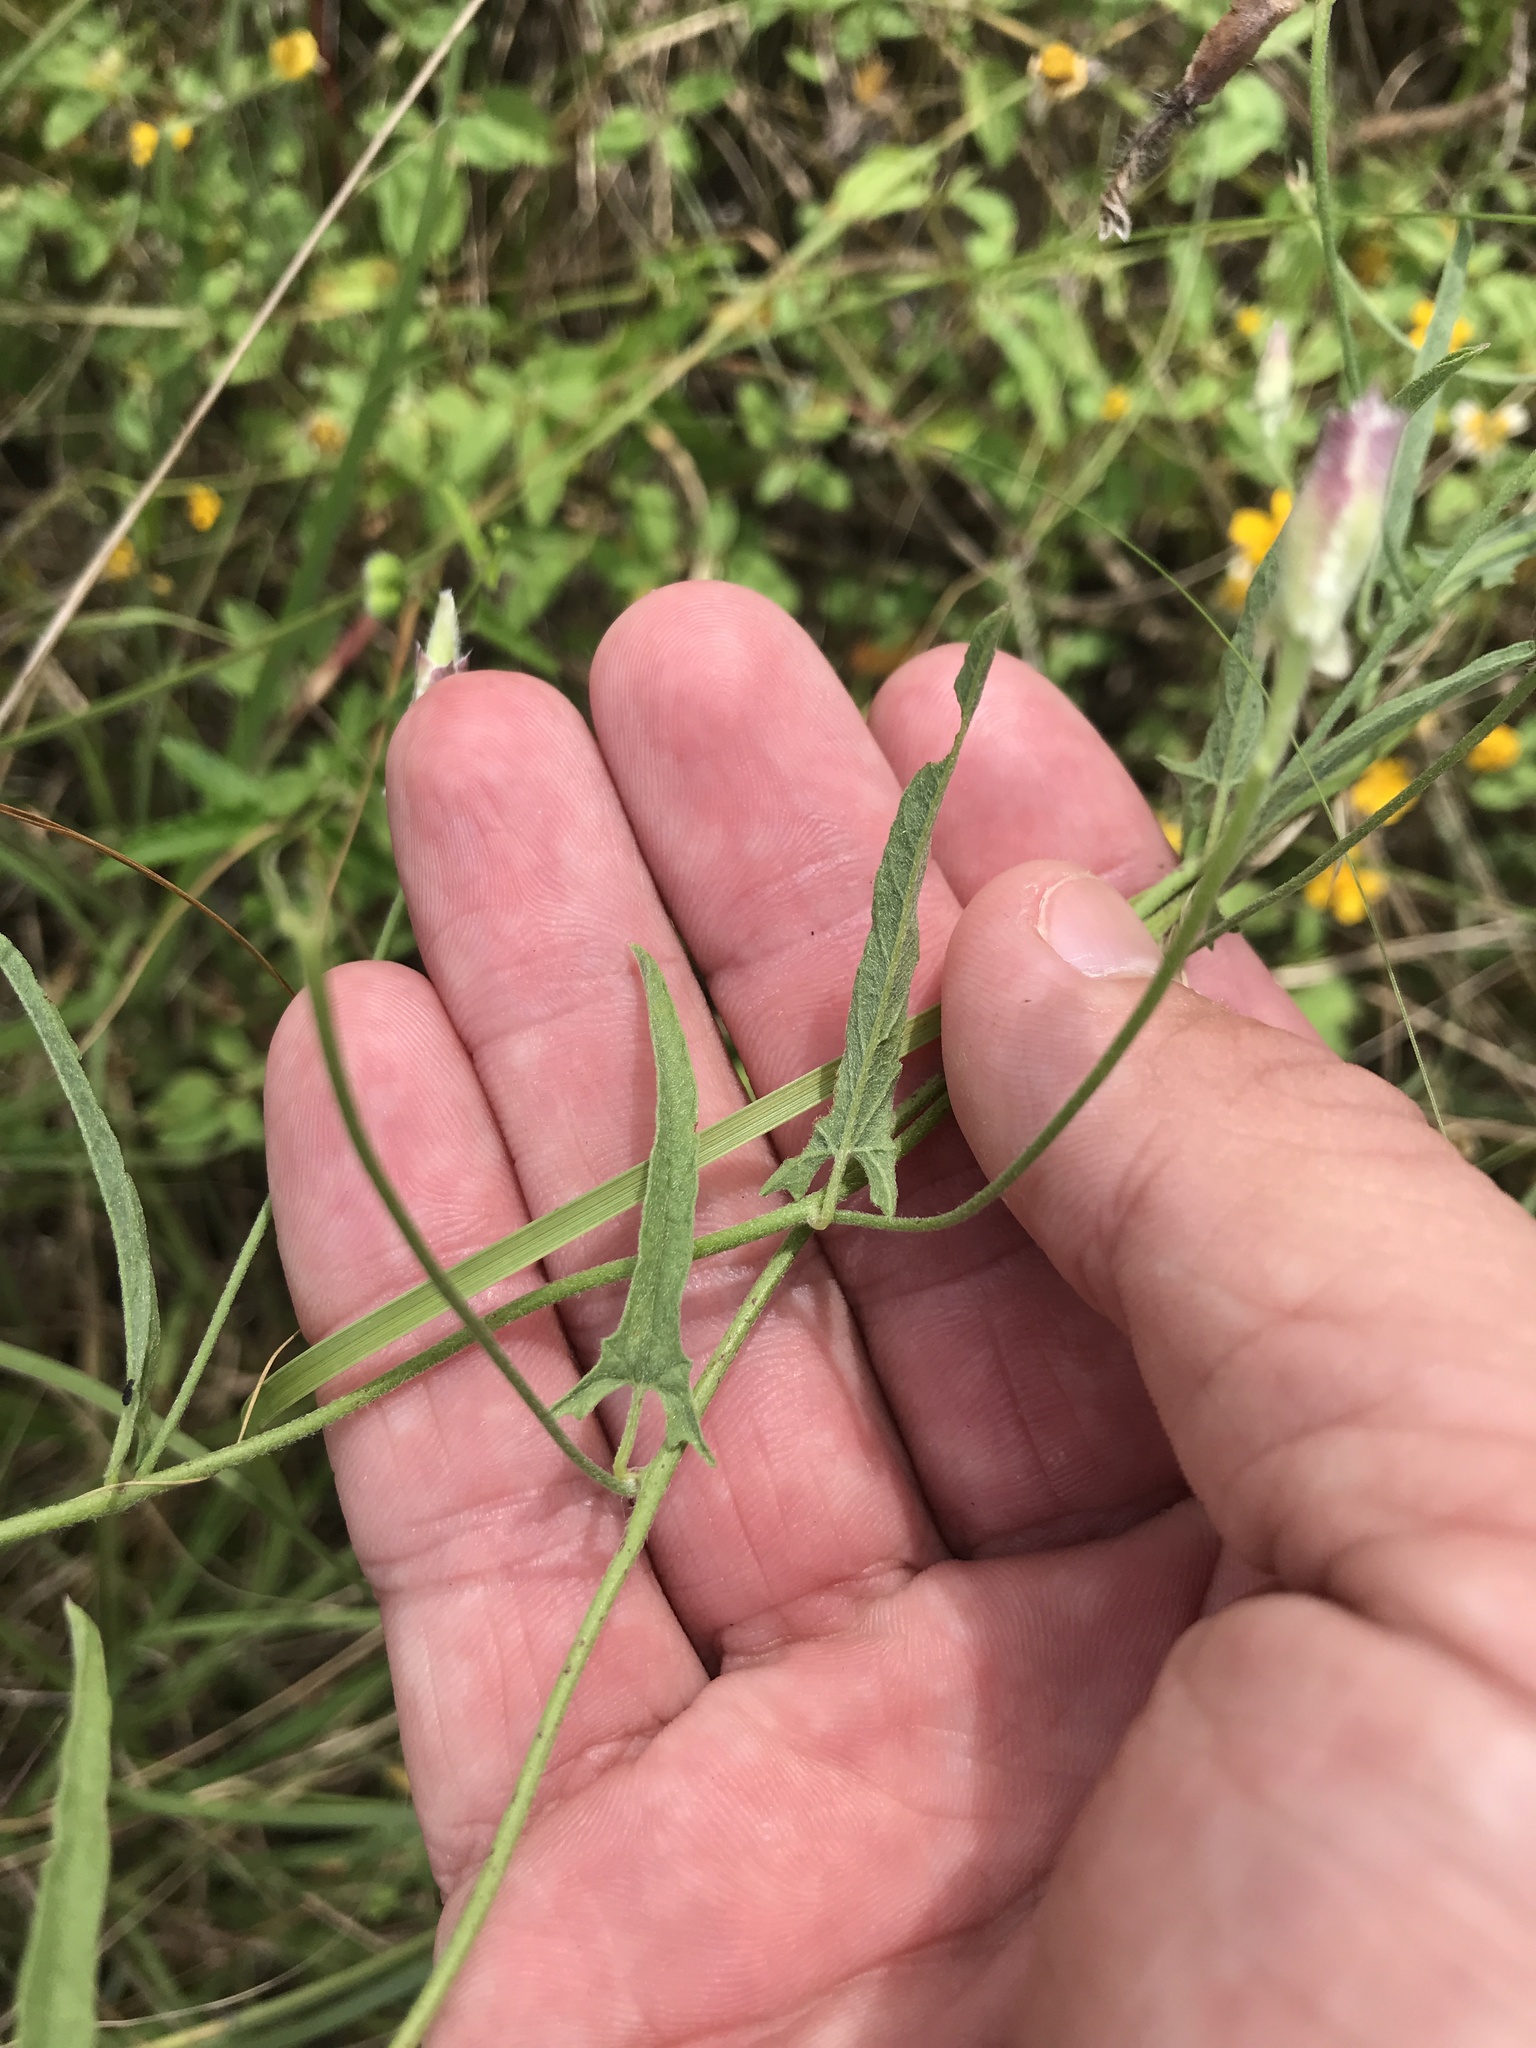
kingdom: Plantae
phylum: Tracheophyta
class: Magnoliopsida
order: Solanales
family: Convolvulaceae
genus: Convolvulus
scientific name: Convolvulus equitans
